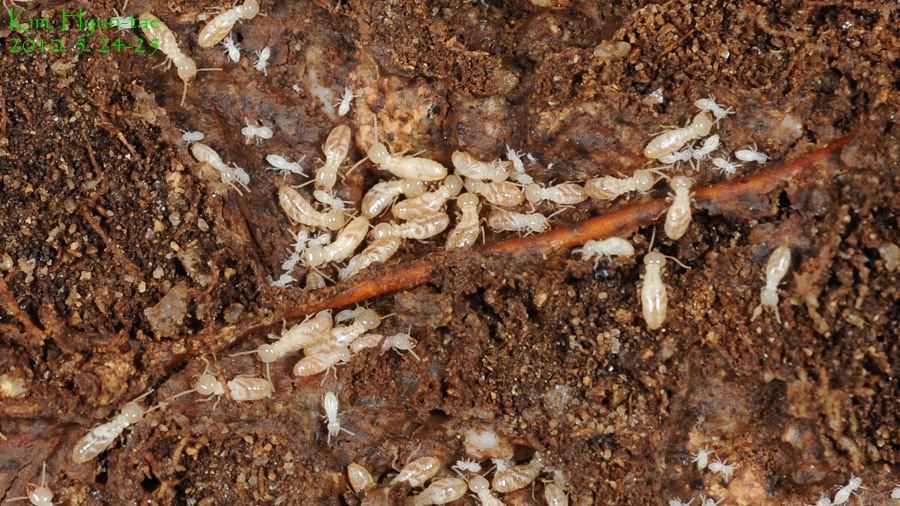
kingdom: Animalia
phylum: Arthropoda
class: Insecta
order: Blattodea
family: Rhinotermitidae
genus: Reticulitermes
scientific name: Reticulitermes speratus
